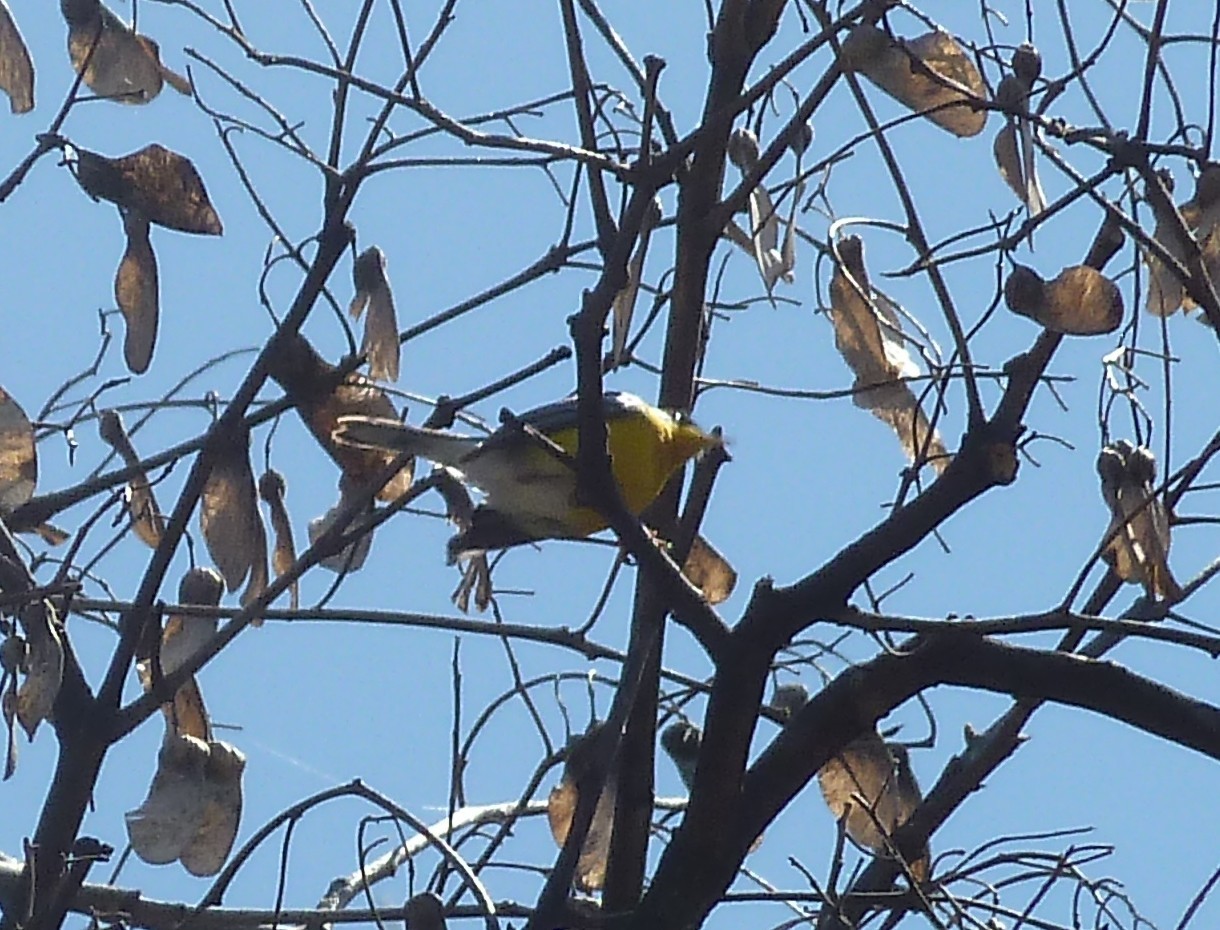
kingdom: Animalia
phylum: Chordata
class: Aves
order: Passeriformes
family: Parulidae
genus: Setophaga
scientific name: Setophaga pitiayumi
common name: Tropical parula
